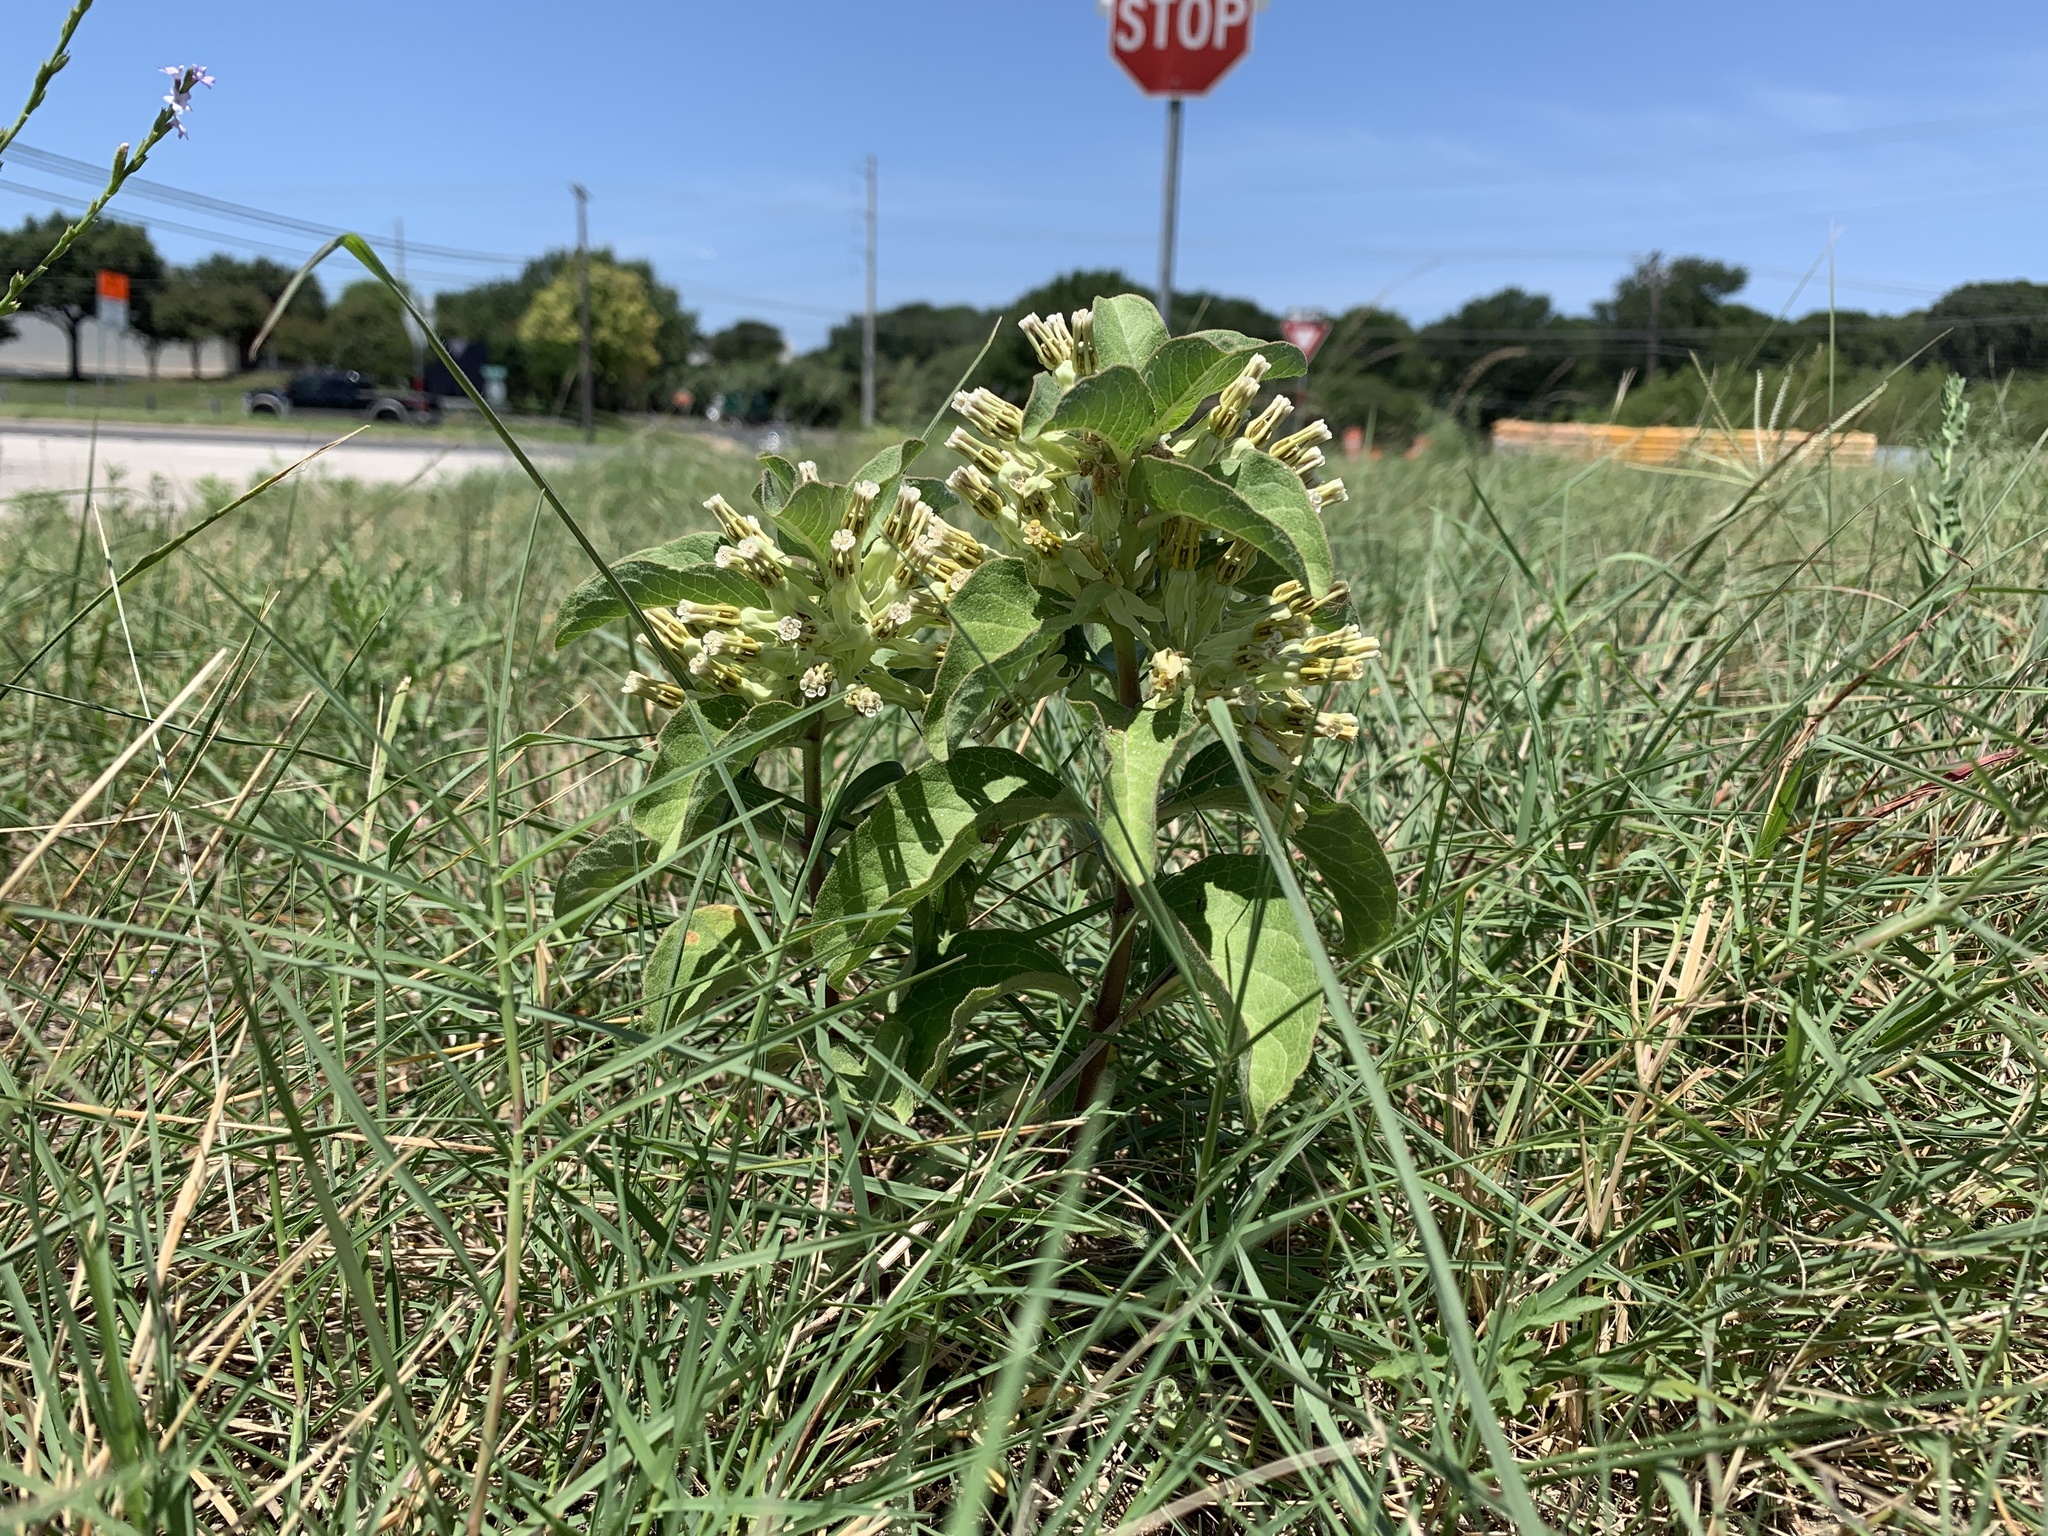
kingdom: Plantae
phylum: Tracheophyta
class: Magnoliopsida
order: Gentianales
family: Apocynaceae
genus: Asclepias
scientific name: Asclepias oenotheroides
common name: Zizotes milkweed
